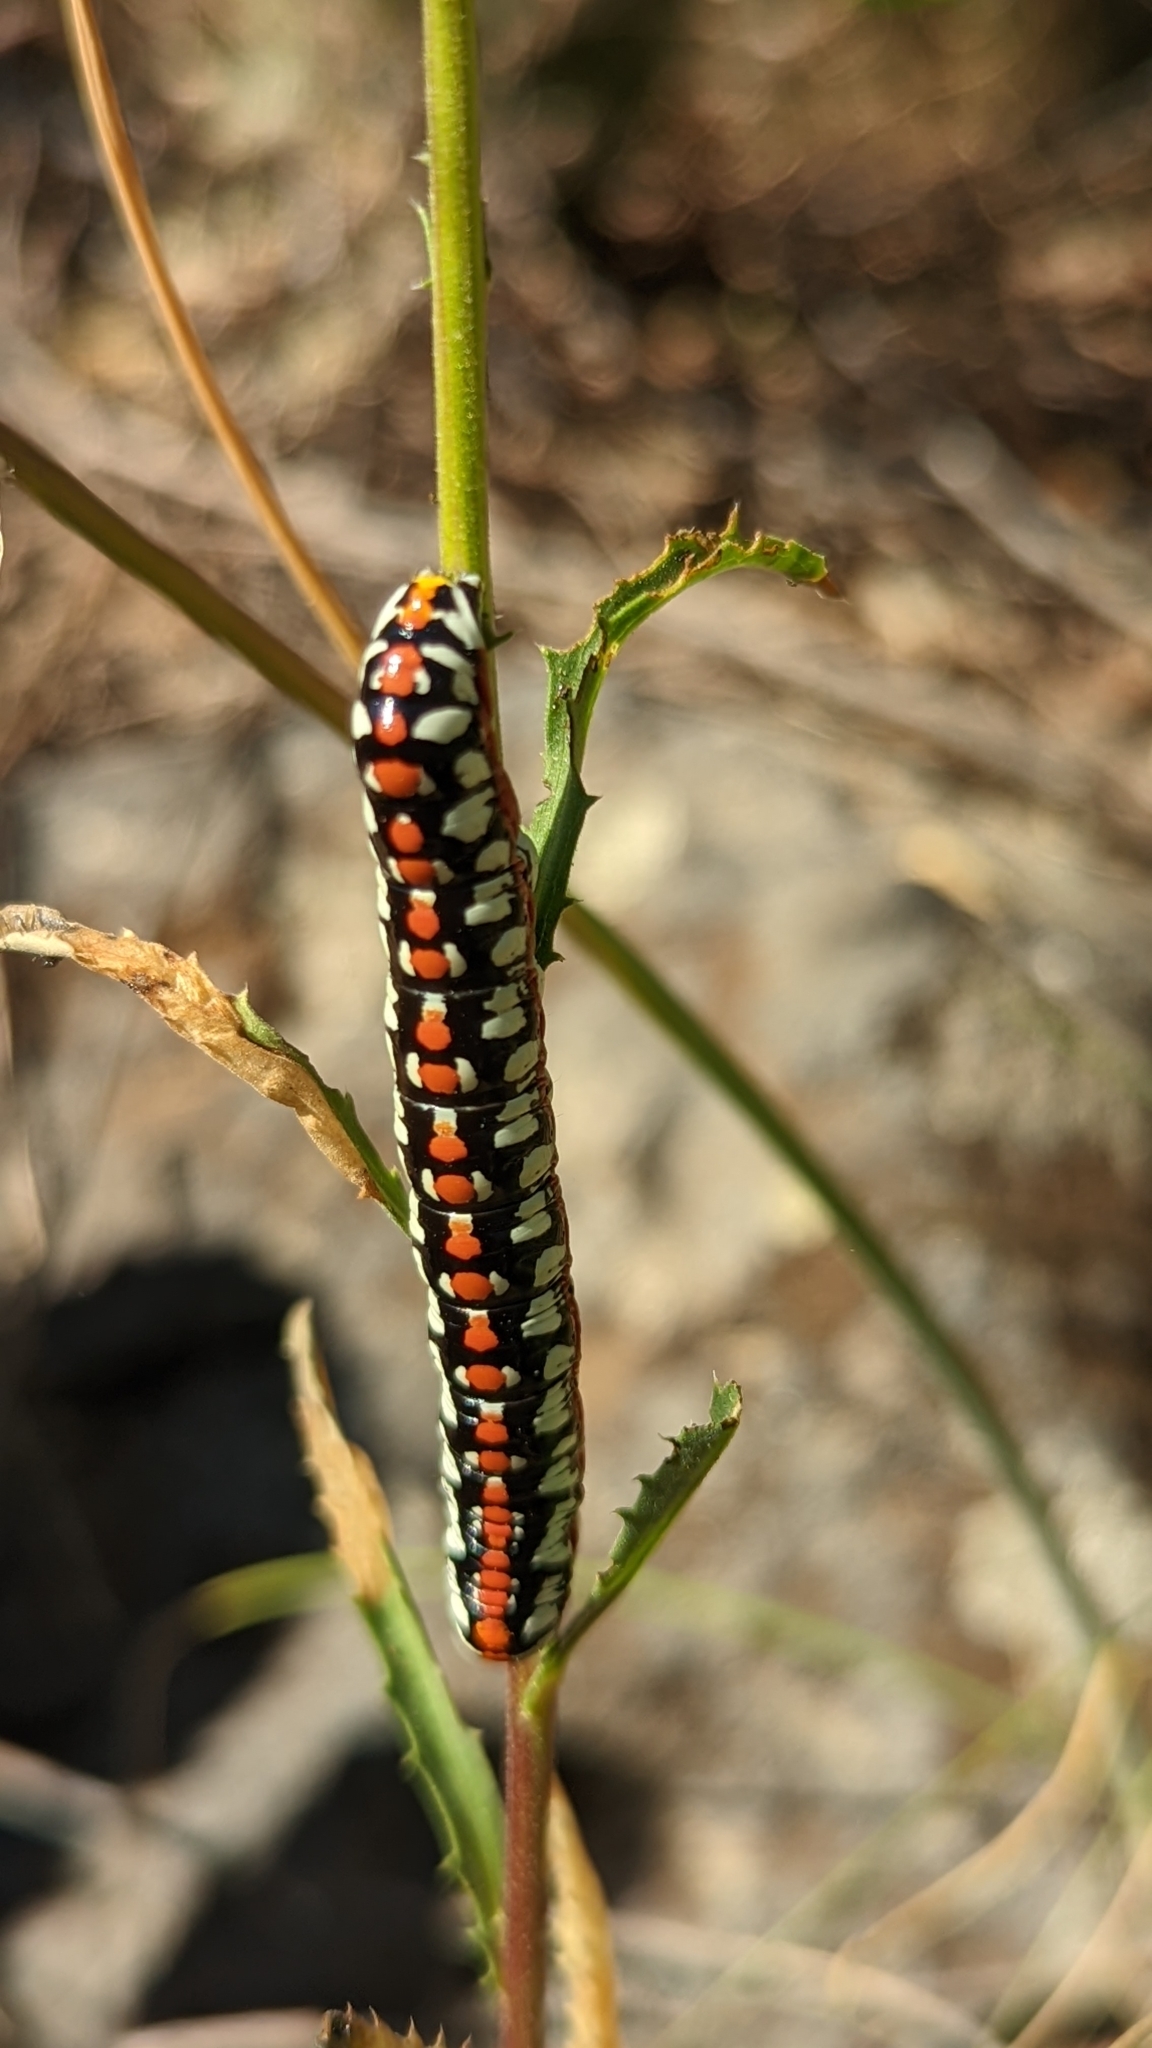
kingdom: Animalia
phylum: Arthropoda
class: Insecta
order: Lepidoptera
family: Noctuidae
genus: Cucullia
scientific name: Cucullia dorsalis
